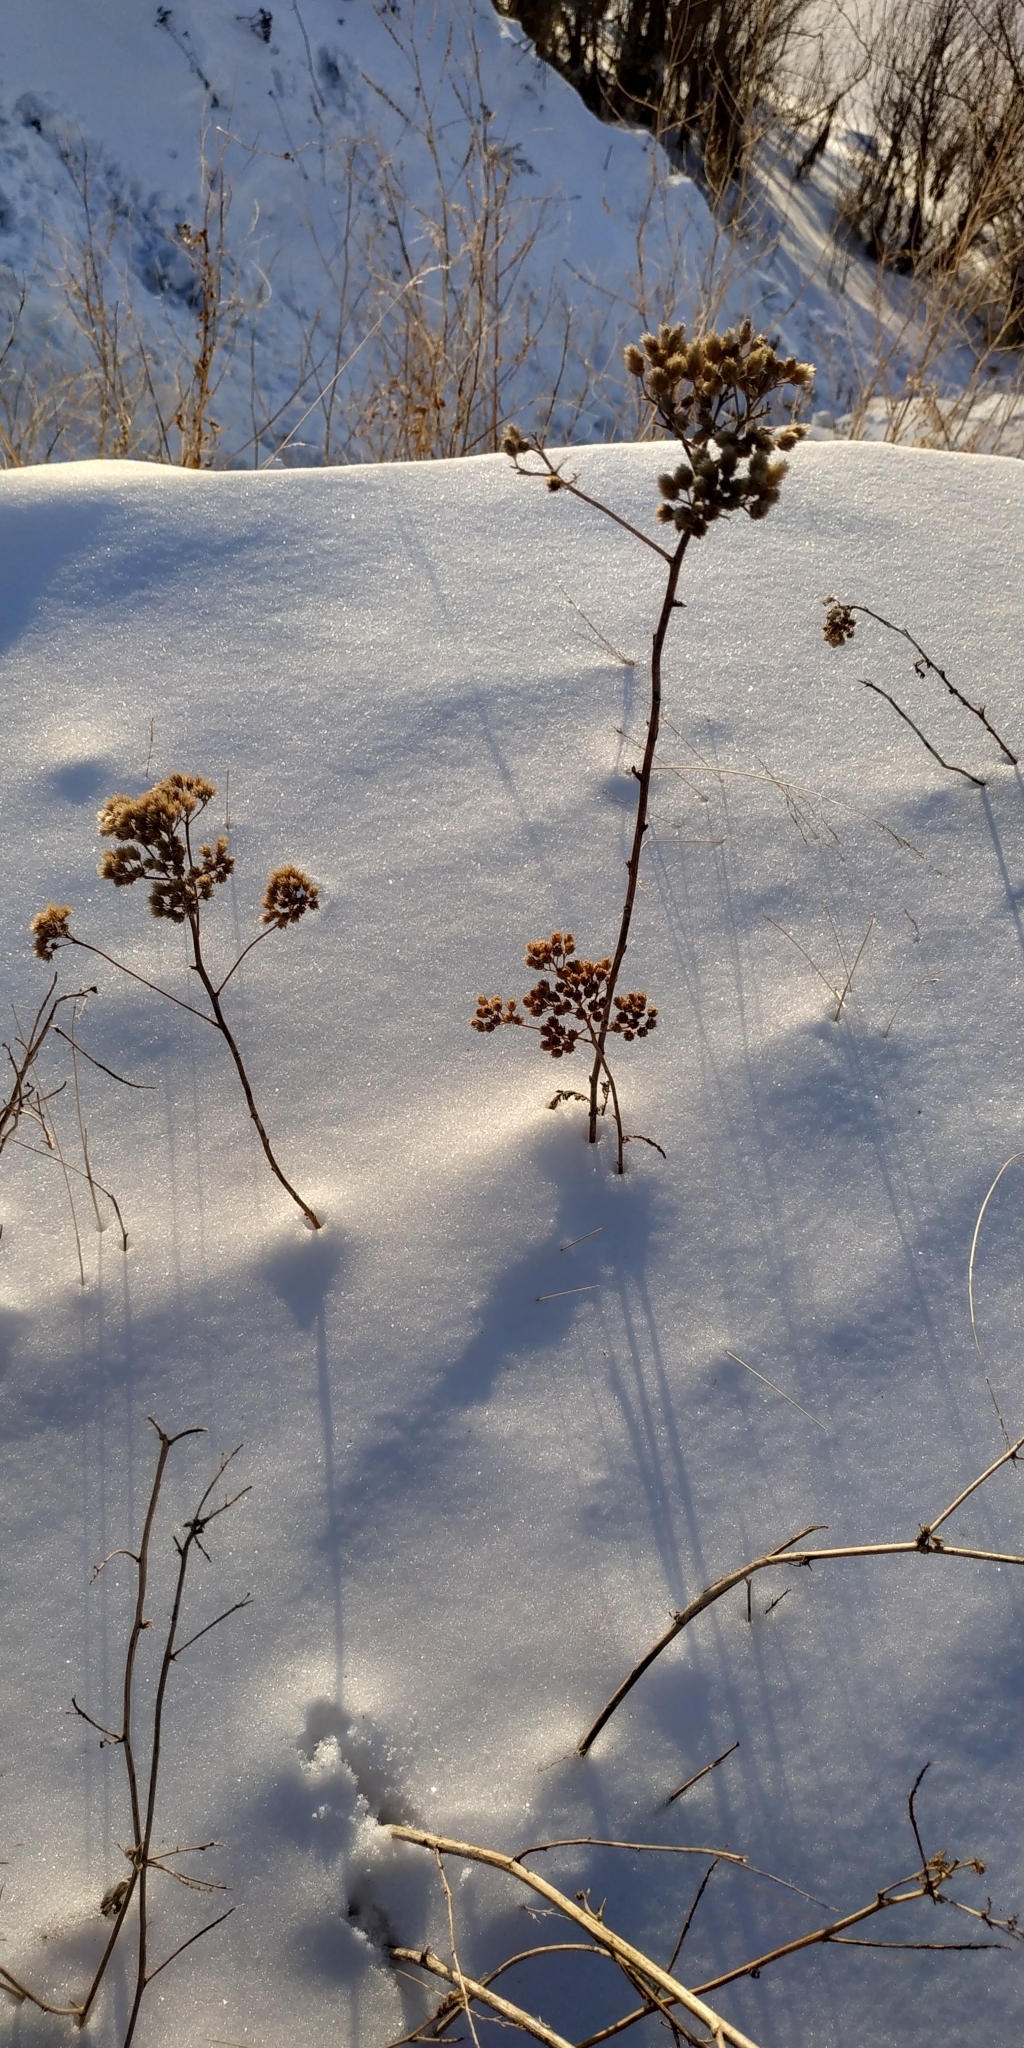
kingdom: Plantae
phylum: Tracheophyta
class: Magnoliopsida
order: Asterales
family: Asteraceae
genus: Tanacetum
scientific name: Tanacetum vulgare
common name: Common tansy
